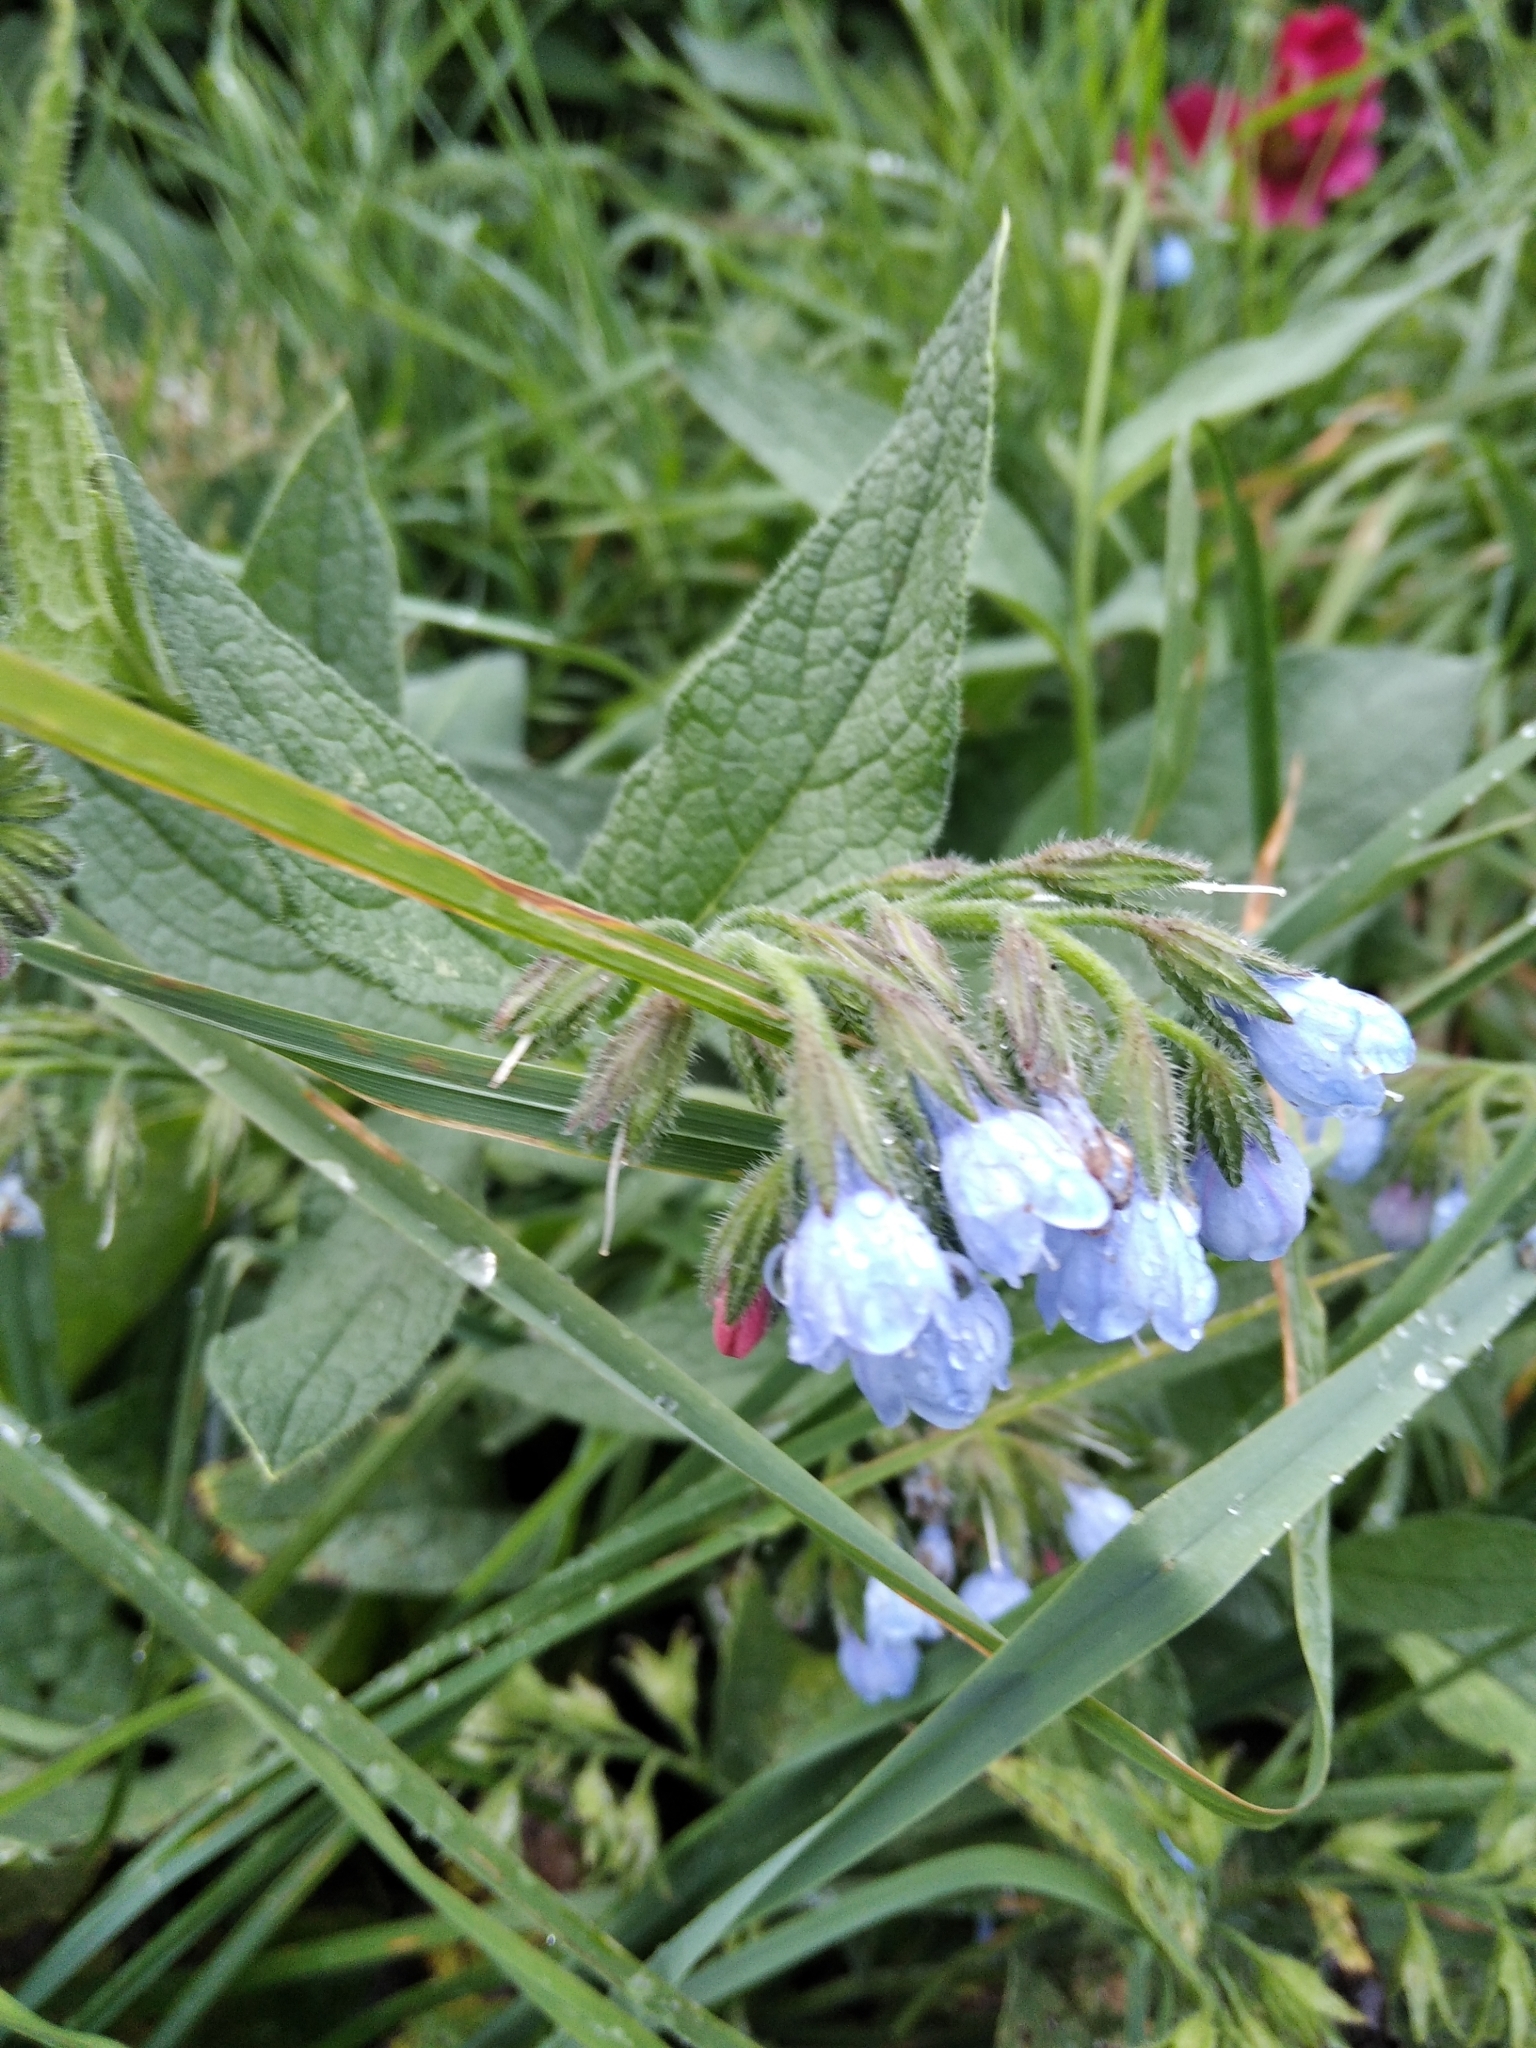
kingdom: Plantae
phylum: Tracheophyta
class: Magnoliopsida
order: Boraginales
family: Boraginaceae
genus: Symphytum
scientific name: Symphytum caucasicum
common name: Caucasian comfrey
